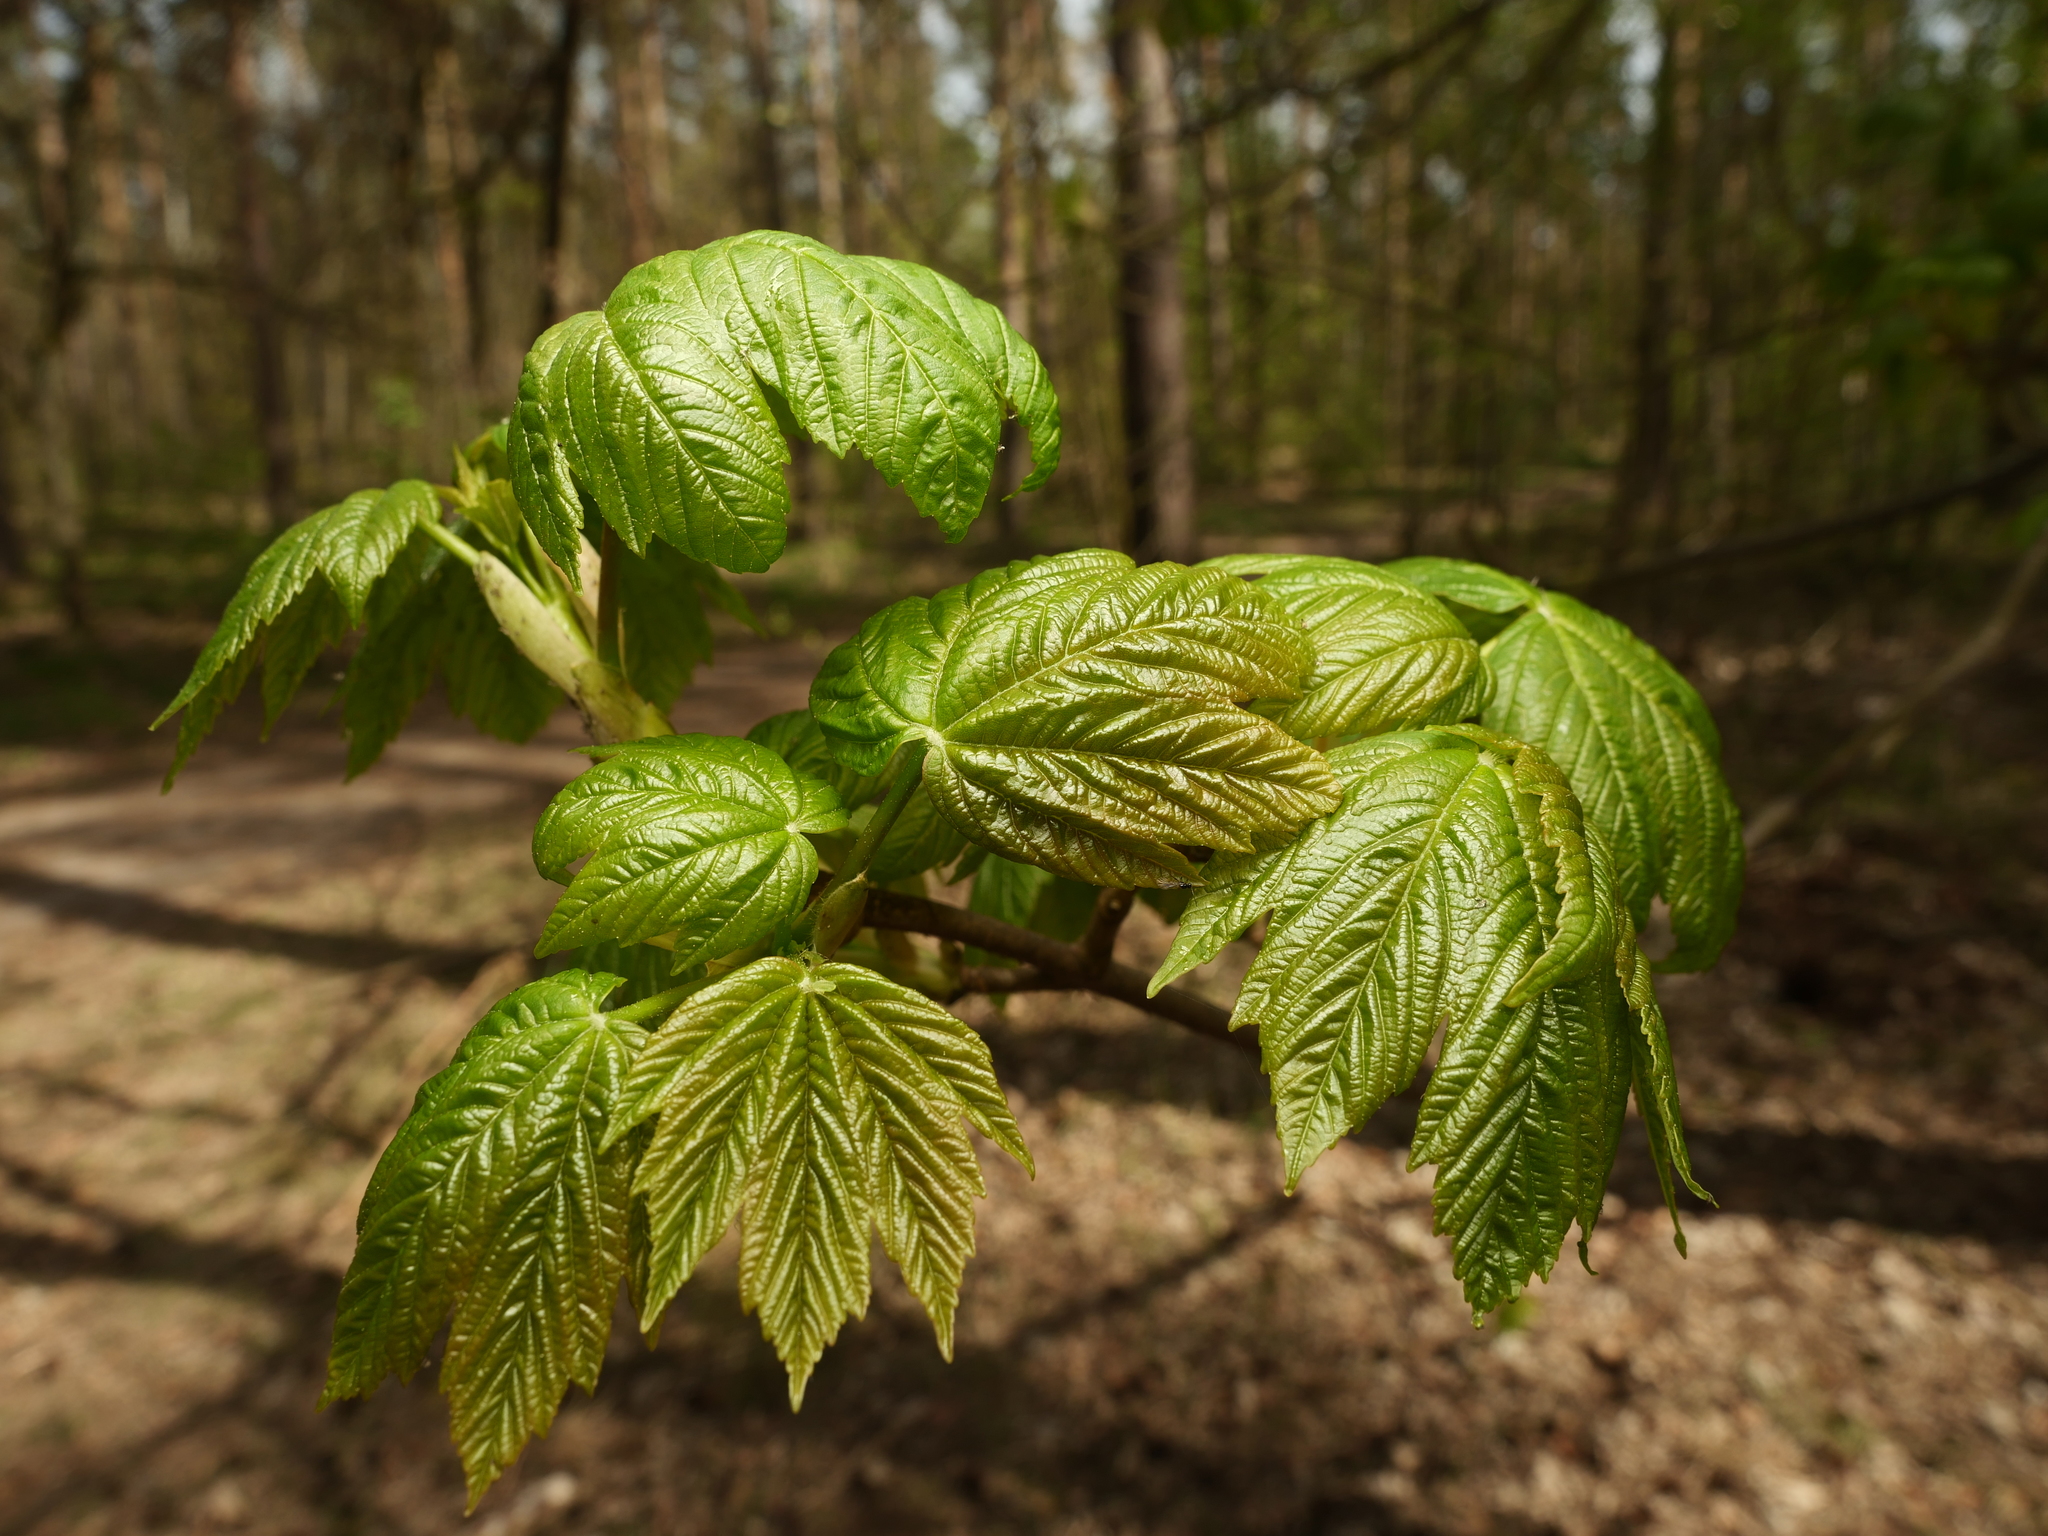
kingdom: Plantae
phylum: Tracheophyta
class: Magnoliopsida
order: Sapindales
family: Sapindaceae
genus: Acer
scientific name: Acer pseudoplatanus
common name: Sycamore
